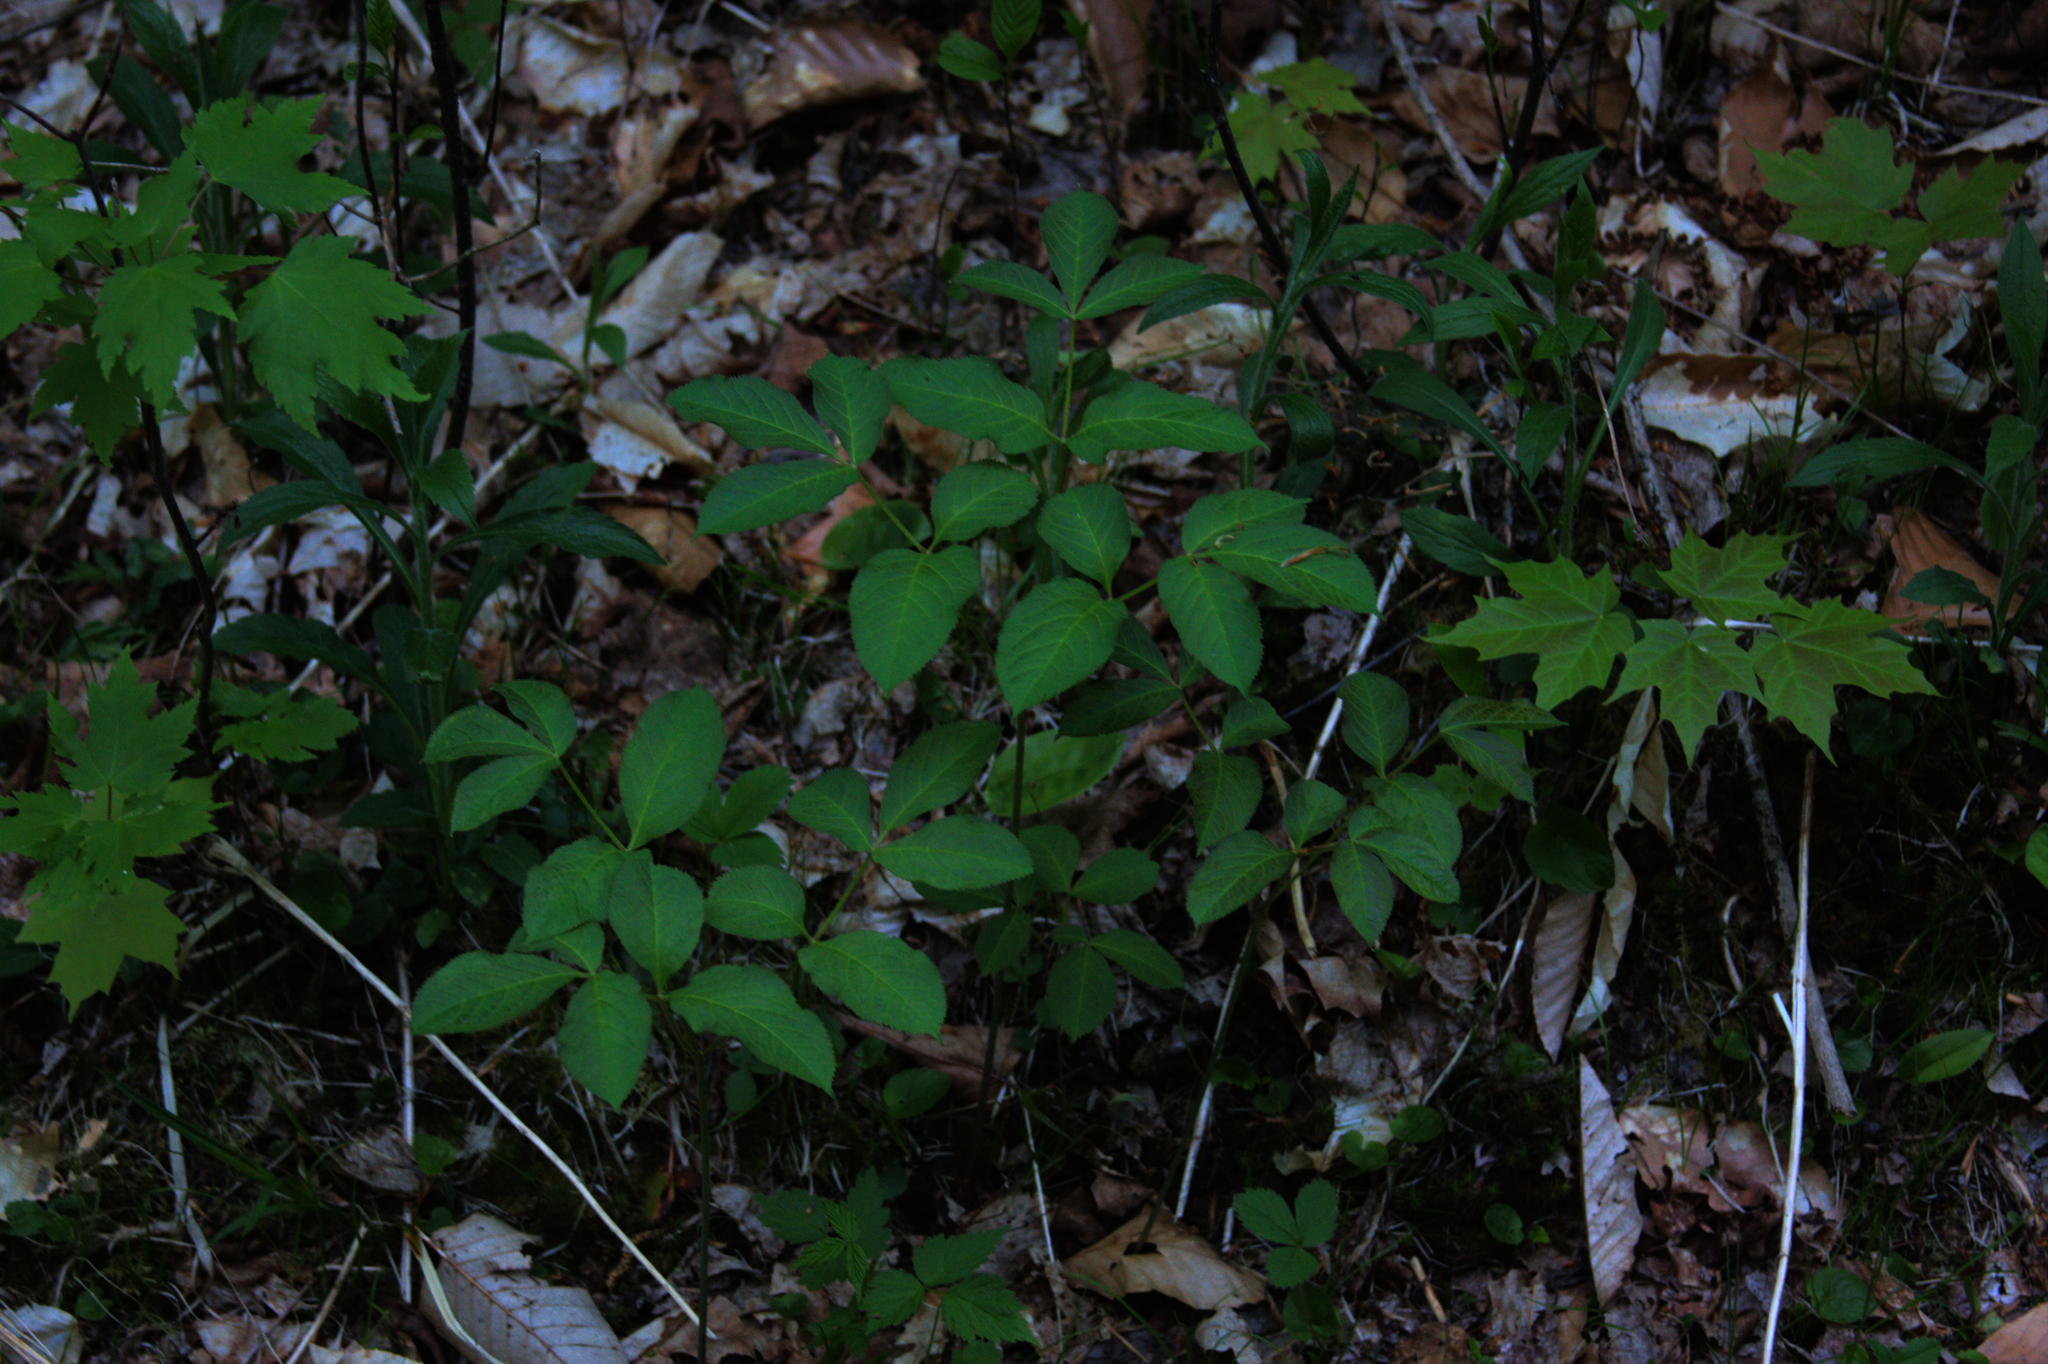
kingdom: Plantae
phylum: Tracheophyta
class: Magnoliopsida
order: Apiales
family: Araliaceae
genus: Aralia
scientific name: Aralia nudicaulis
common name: Wild sarsaparilla
